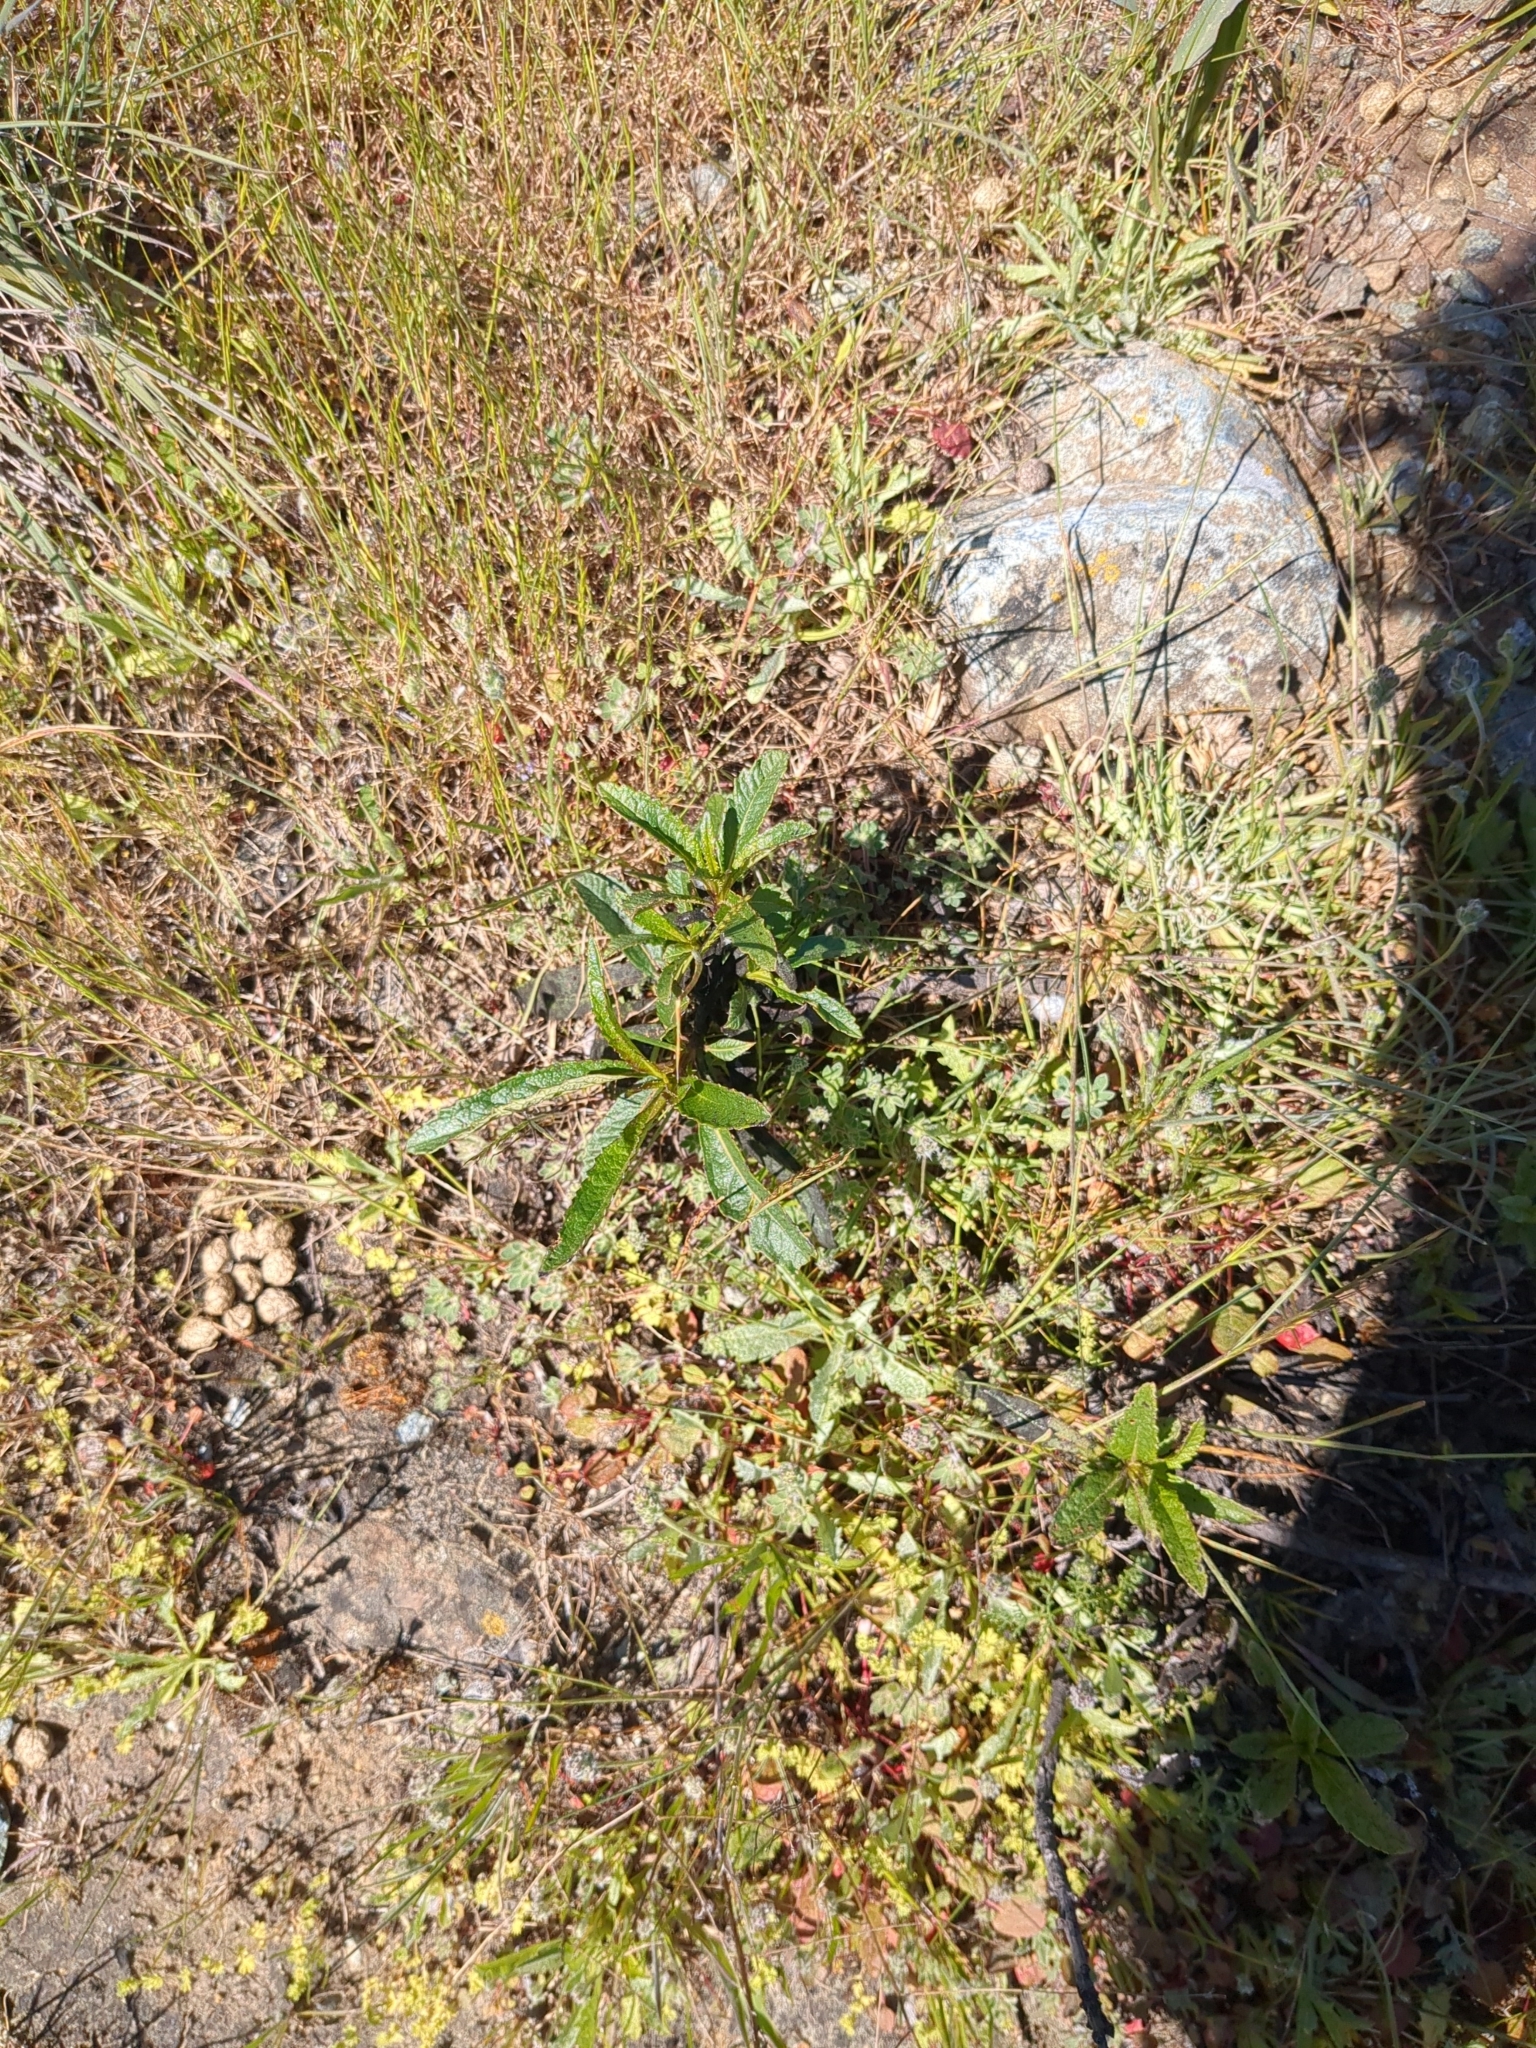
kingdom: Plantae
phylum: Tracheophyta
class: Magnoliopsida
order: Boraginales
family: Namaceae
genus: Eriodictyon
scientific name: Eriodictyon californicum
